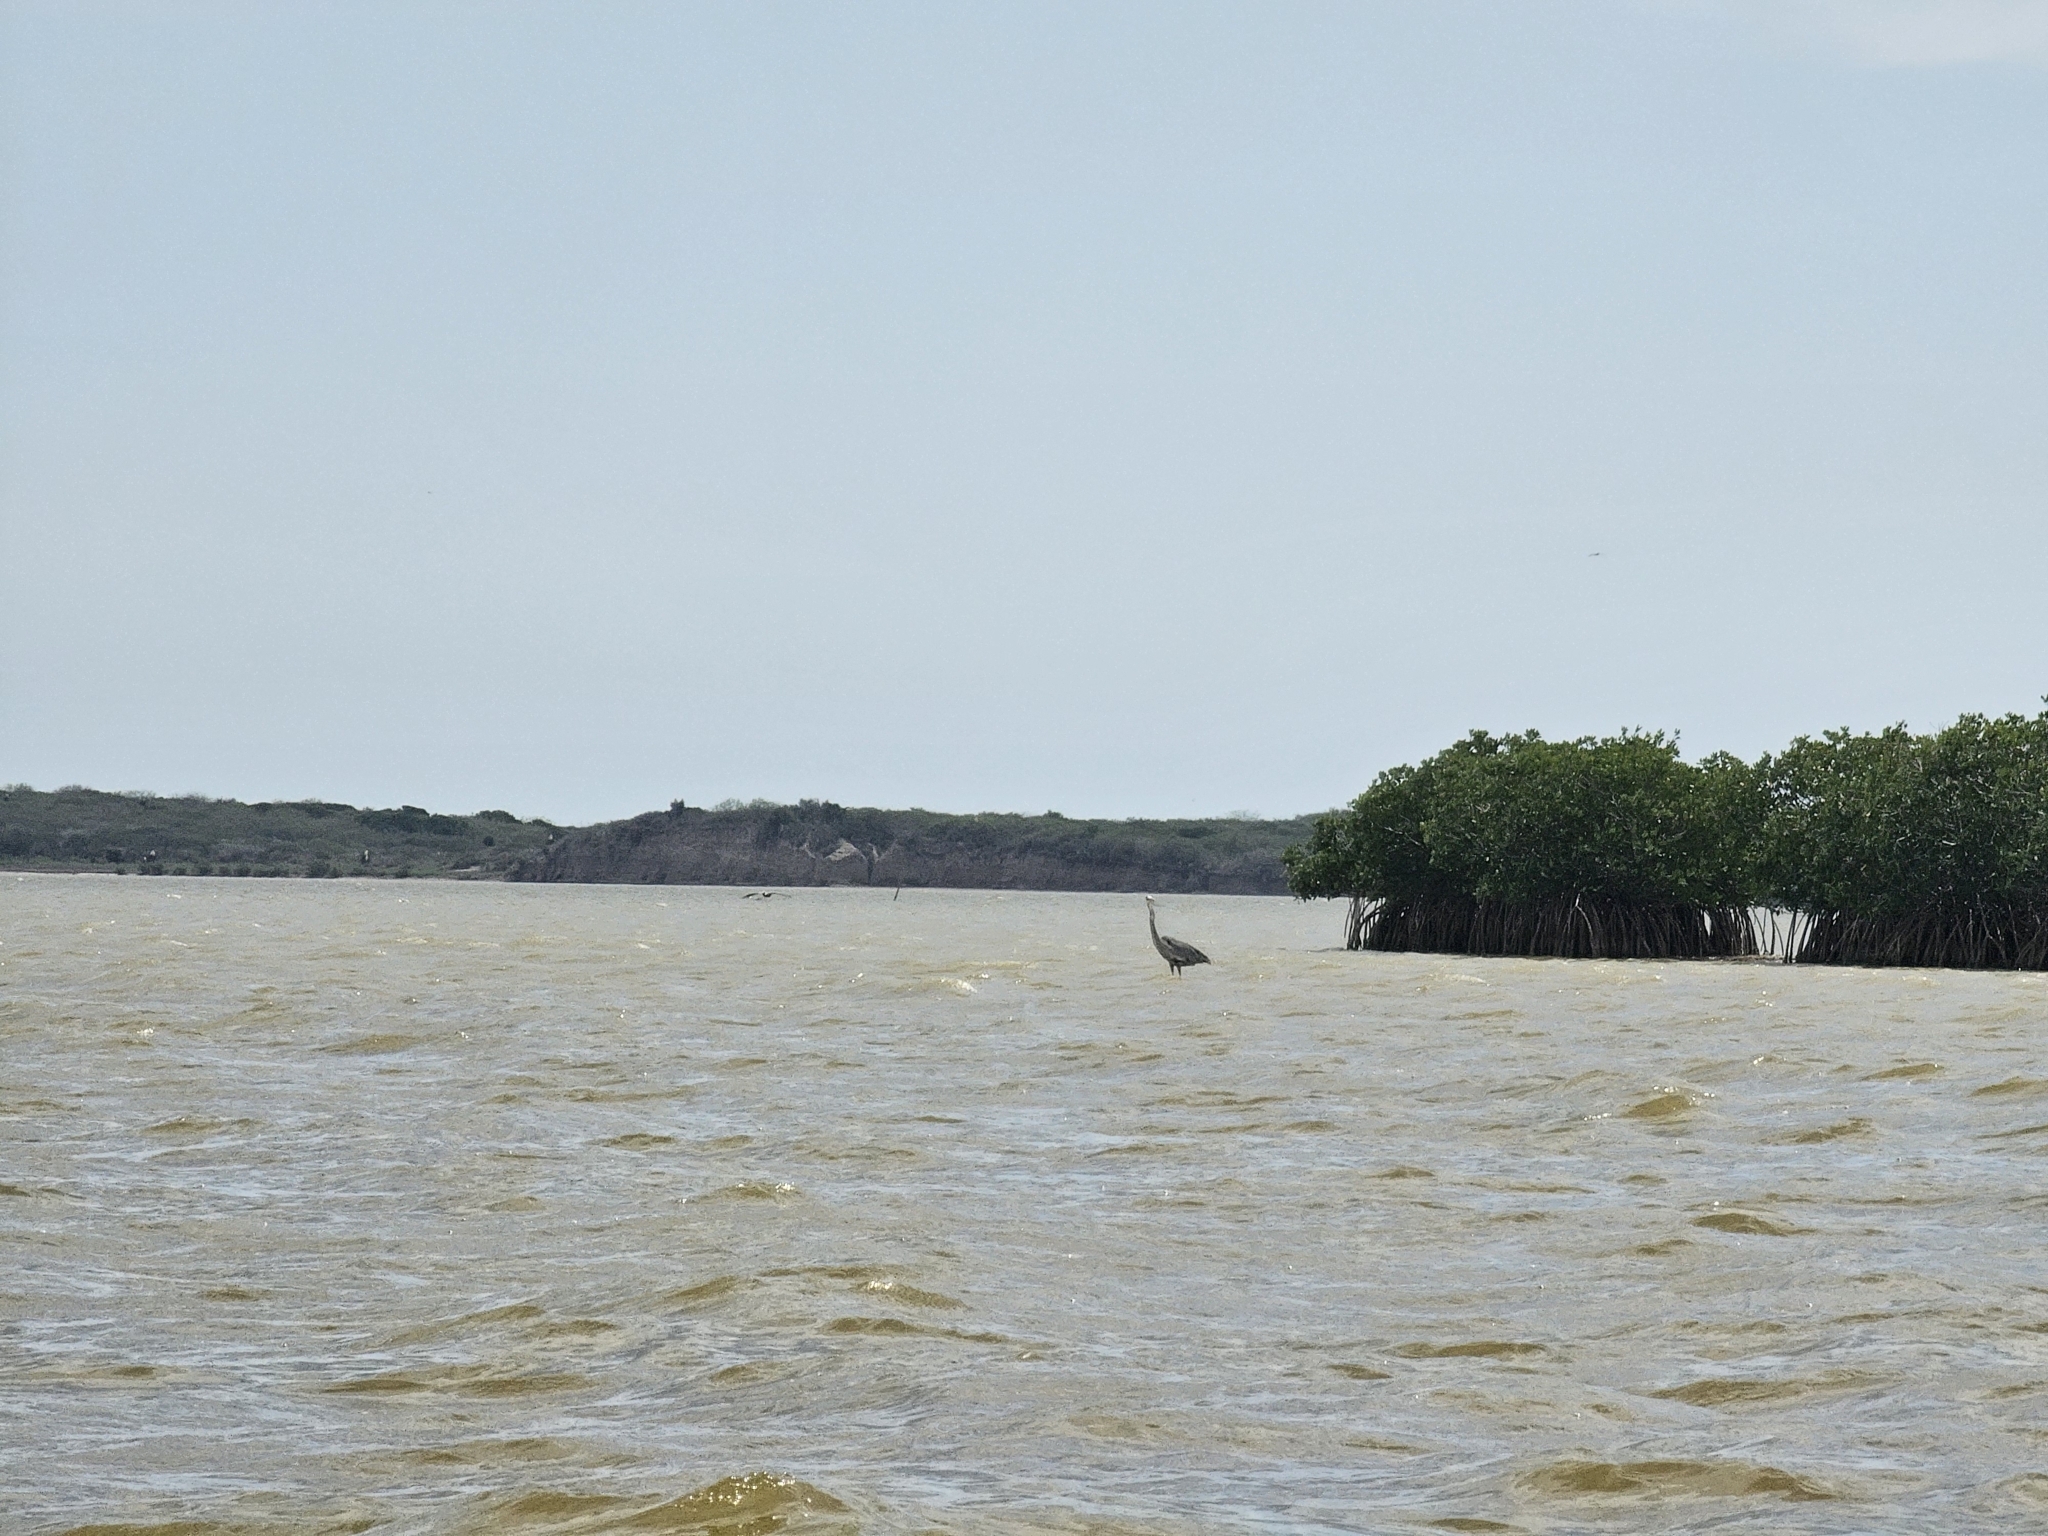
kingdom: Animalia
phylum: Chordata
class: Aves
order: Pelecaniformes
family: Ardeidae
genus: Ardea
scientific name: Ardea herodias
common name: Great blue heron
